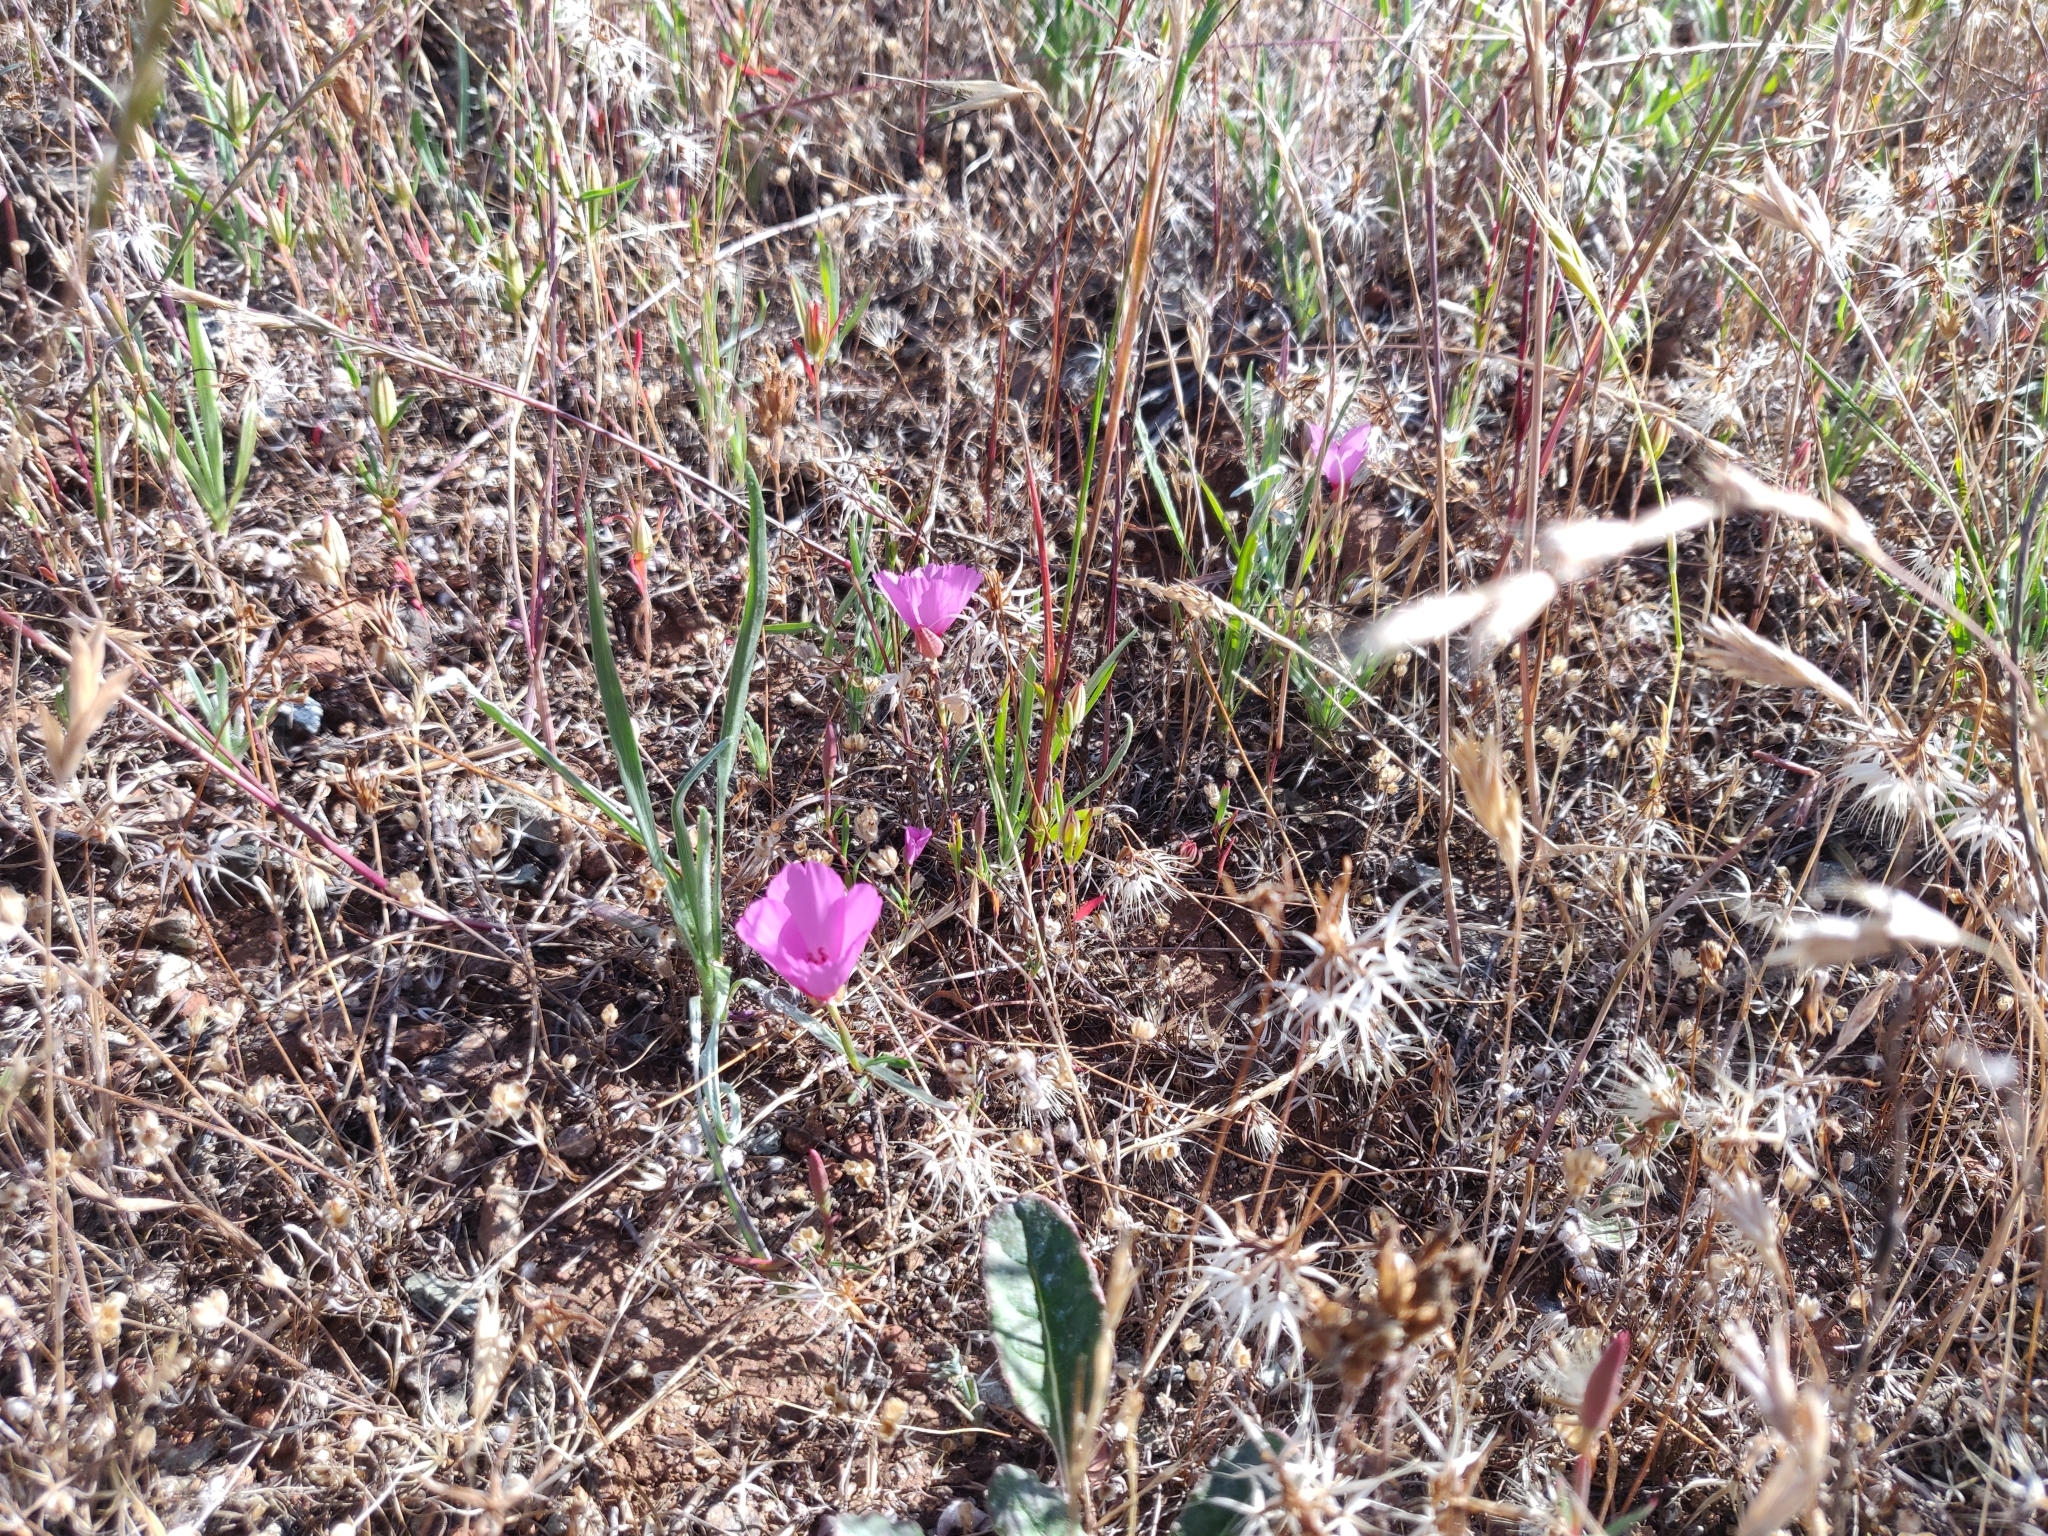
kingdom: Plantae
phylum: Tracheophyta
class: Magnoliopsida
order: Myrtales
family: Onagraceae
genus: Clarkia
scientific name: Clarkia rubicunda
